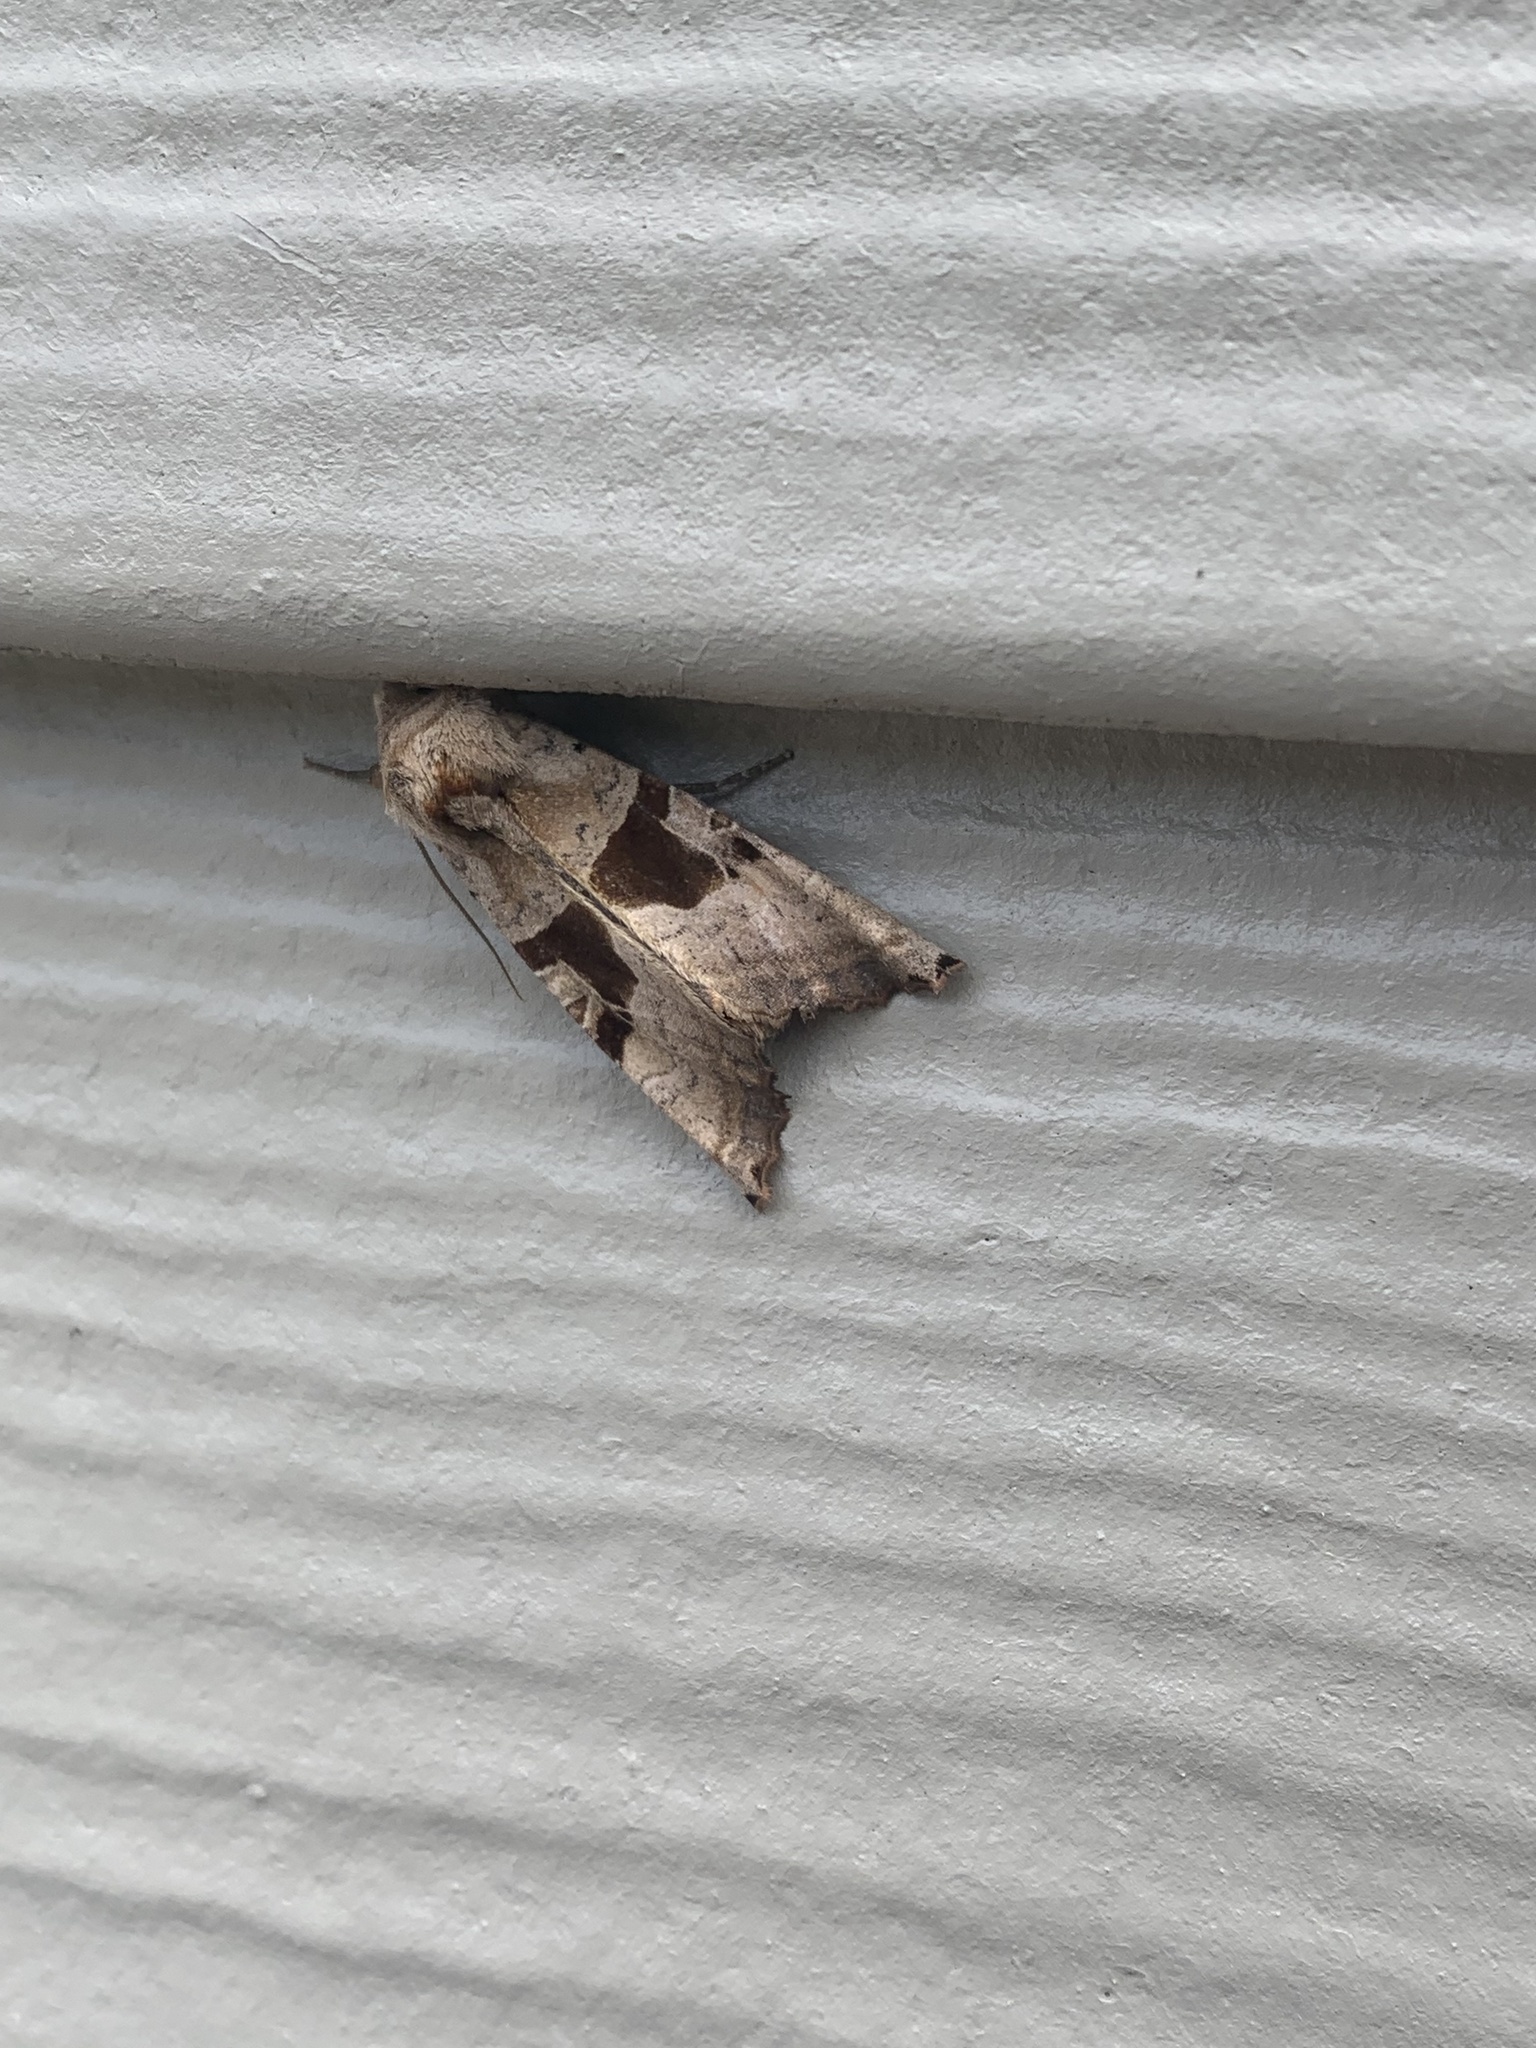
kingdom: Animalia
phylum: Arthropoda
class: Insecta
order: Lepidoptera
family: Noctuidae
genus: Phlogophora
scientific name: Phlogophora periculosa
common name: Brown angle shades
